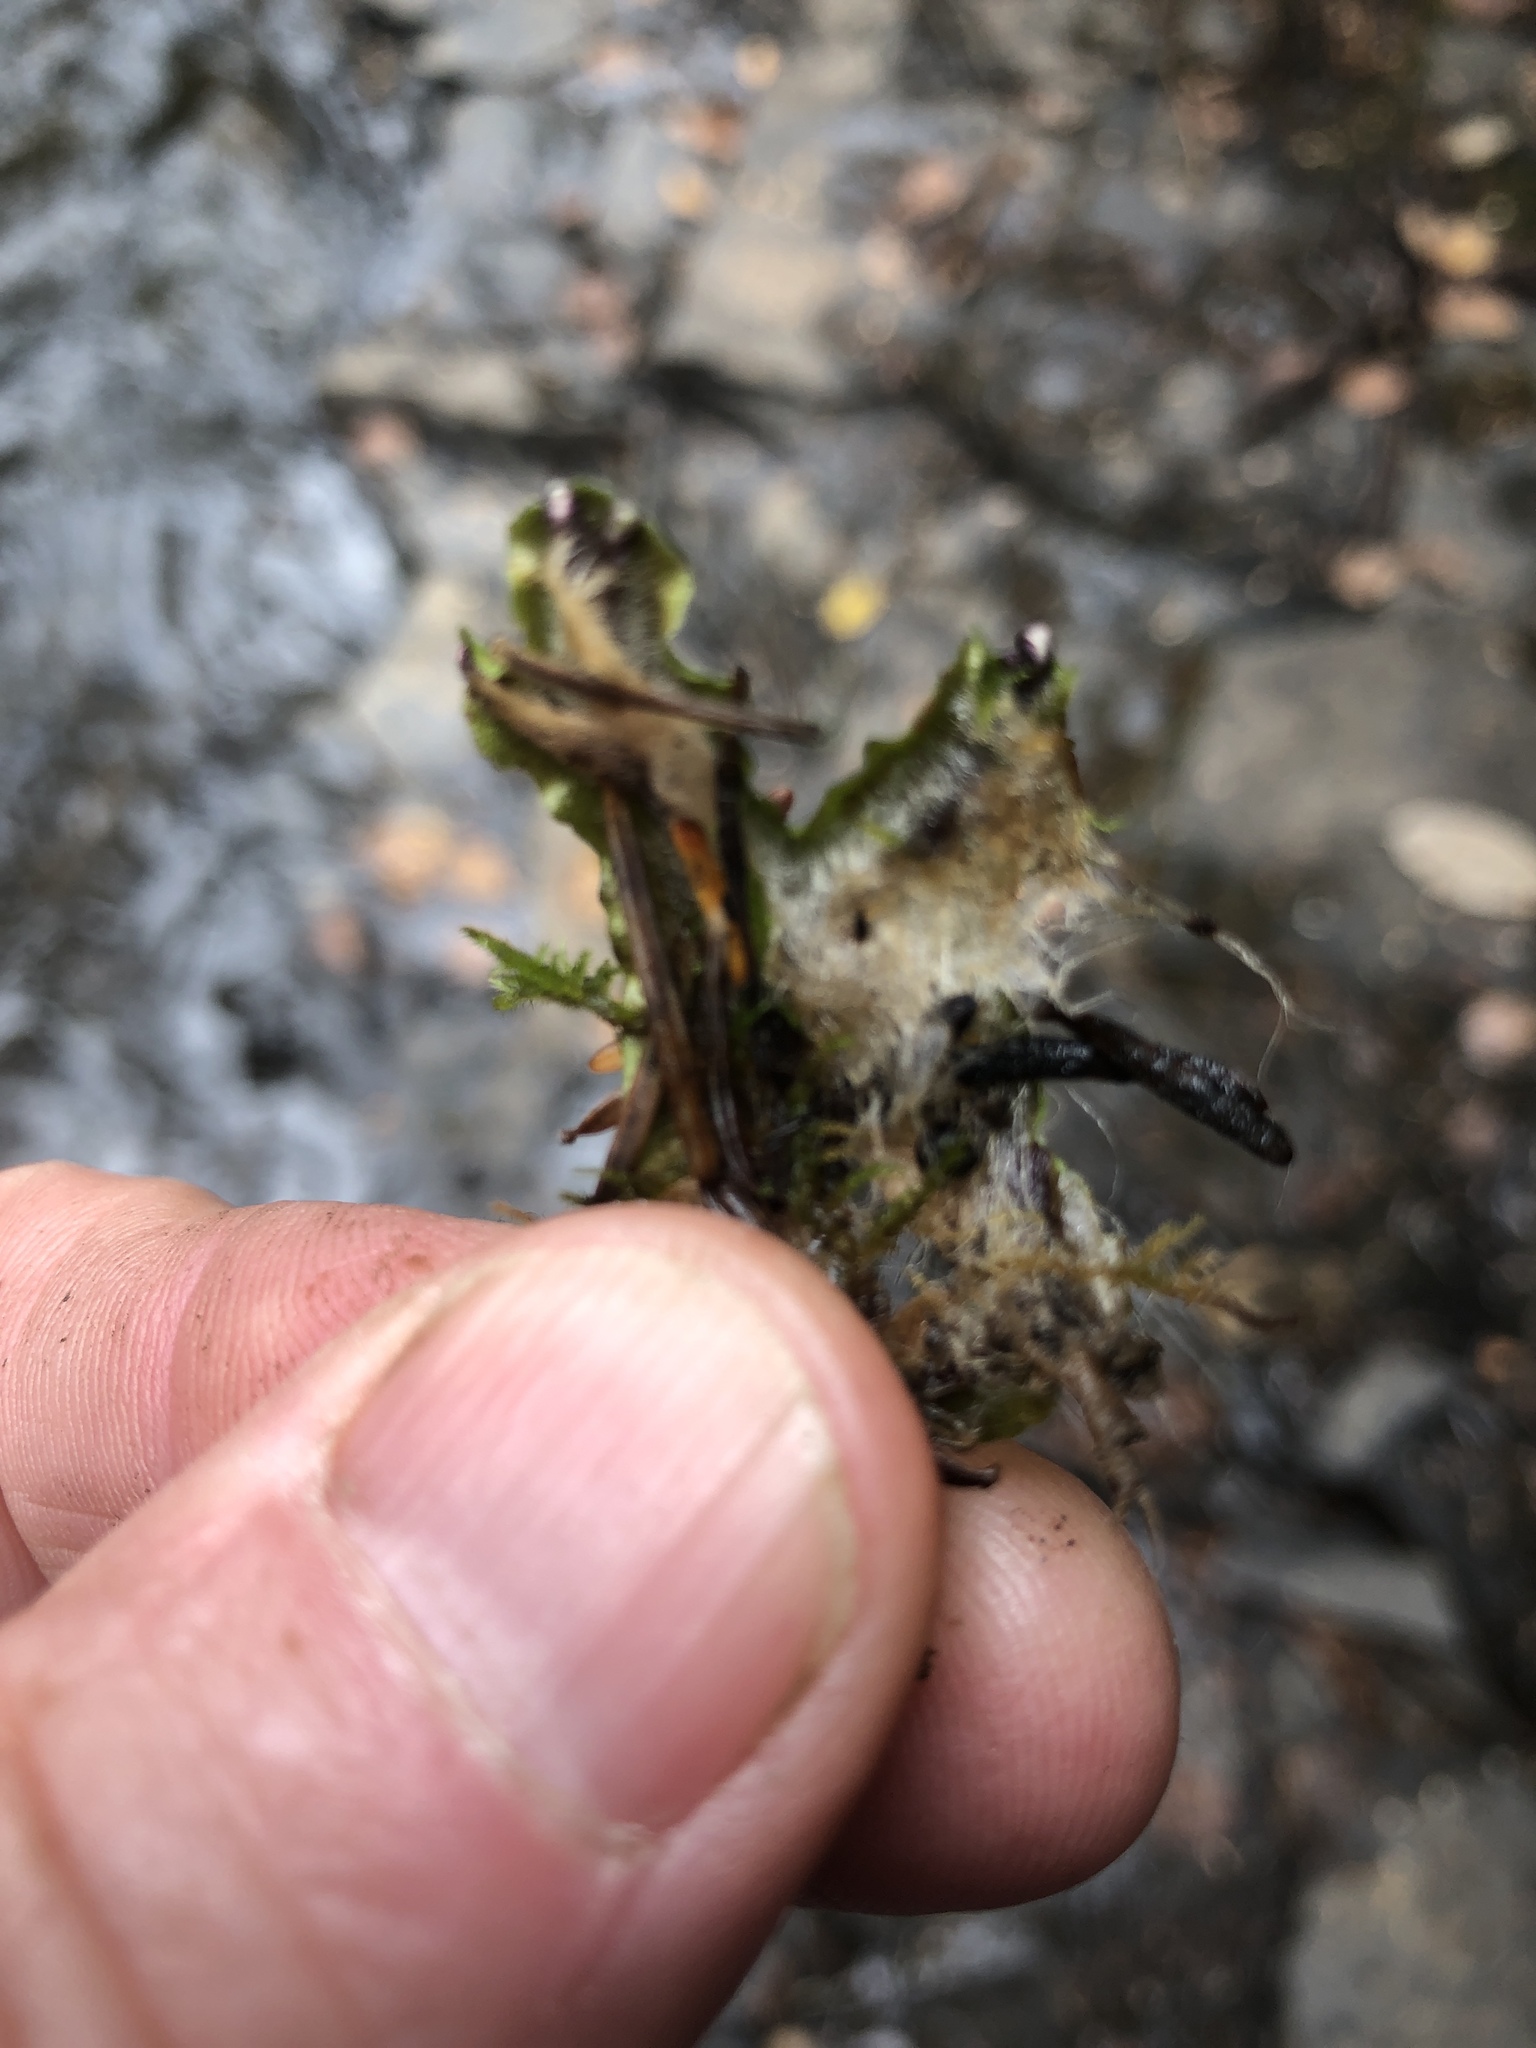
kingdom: Plantae
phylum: Marchantiophyta
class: Marchantiopsida
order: Marchantiales
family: Conocephalaceae
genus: Conocephalum
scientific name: Conocephalum salebrosum
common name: Cat-tongue liverwort
